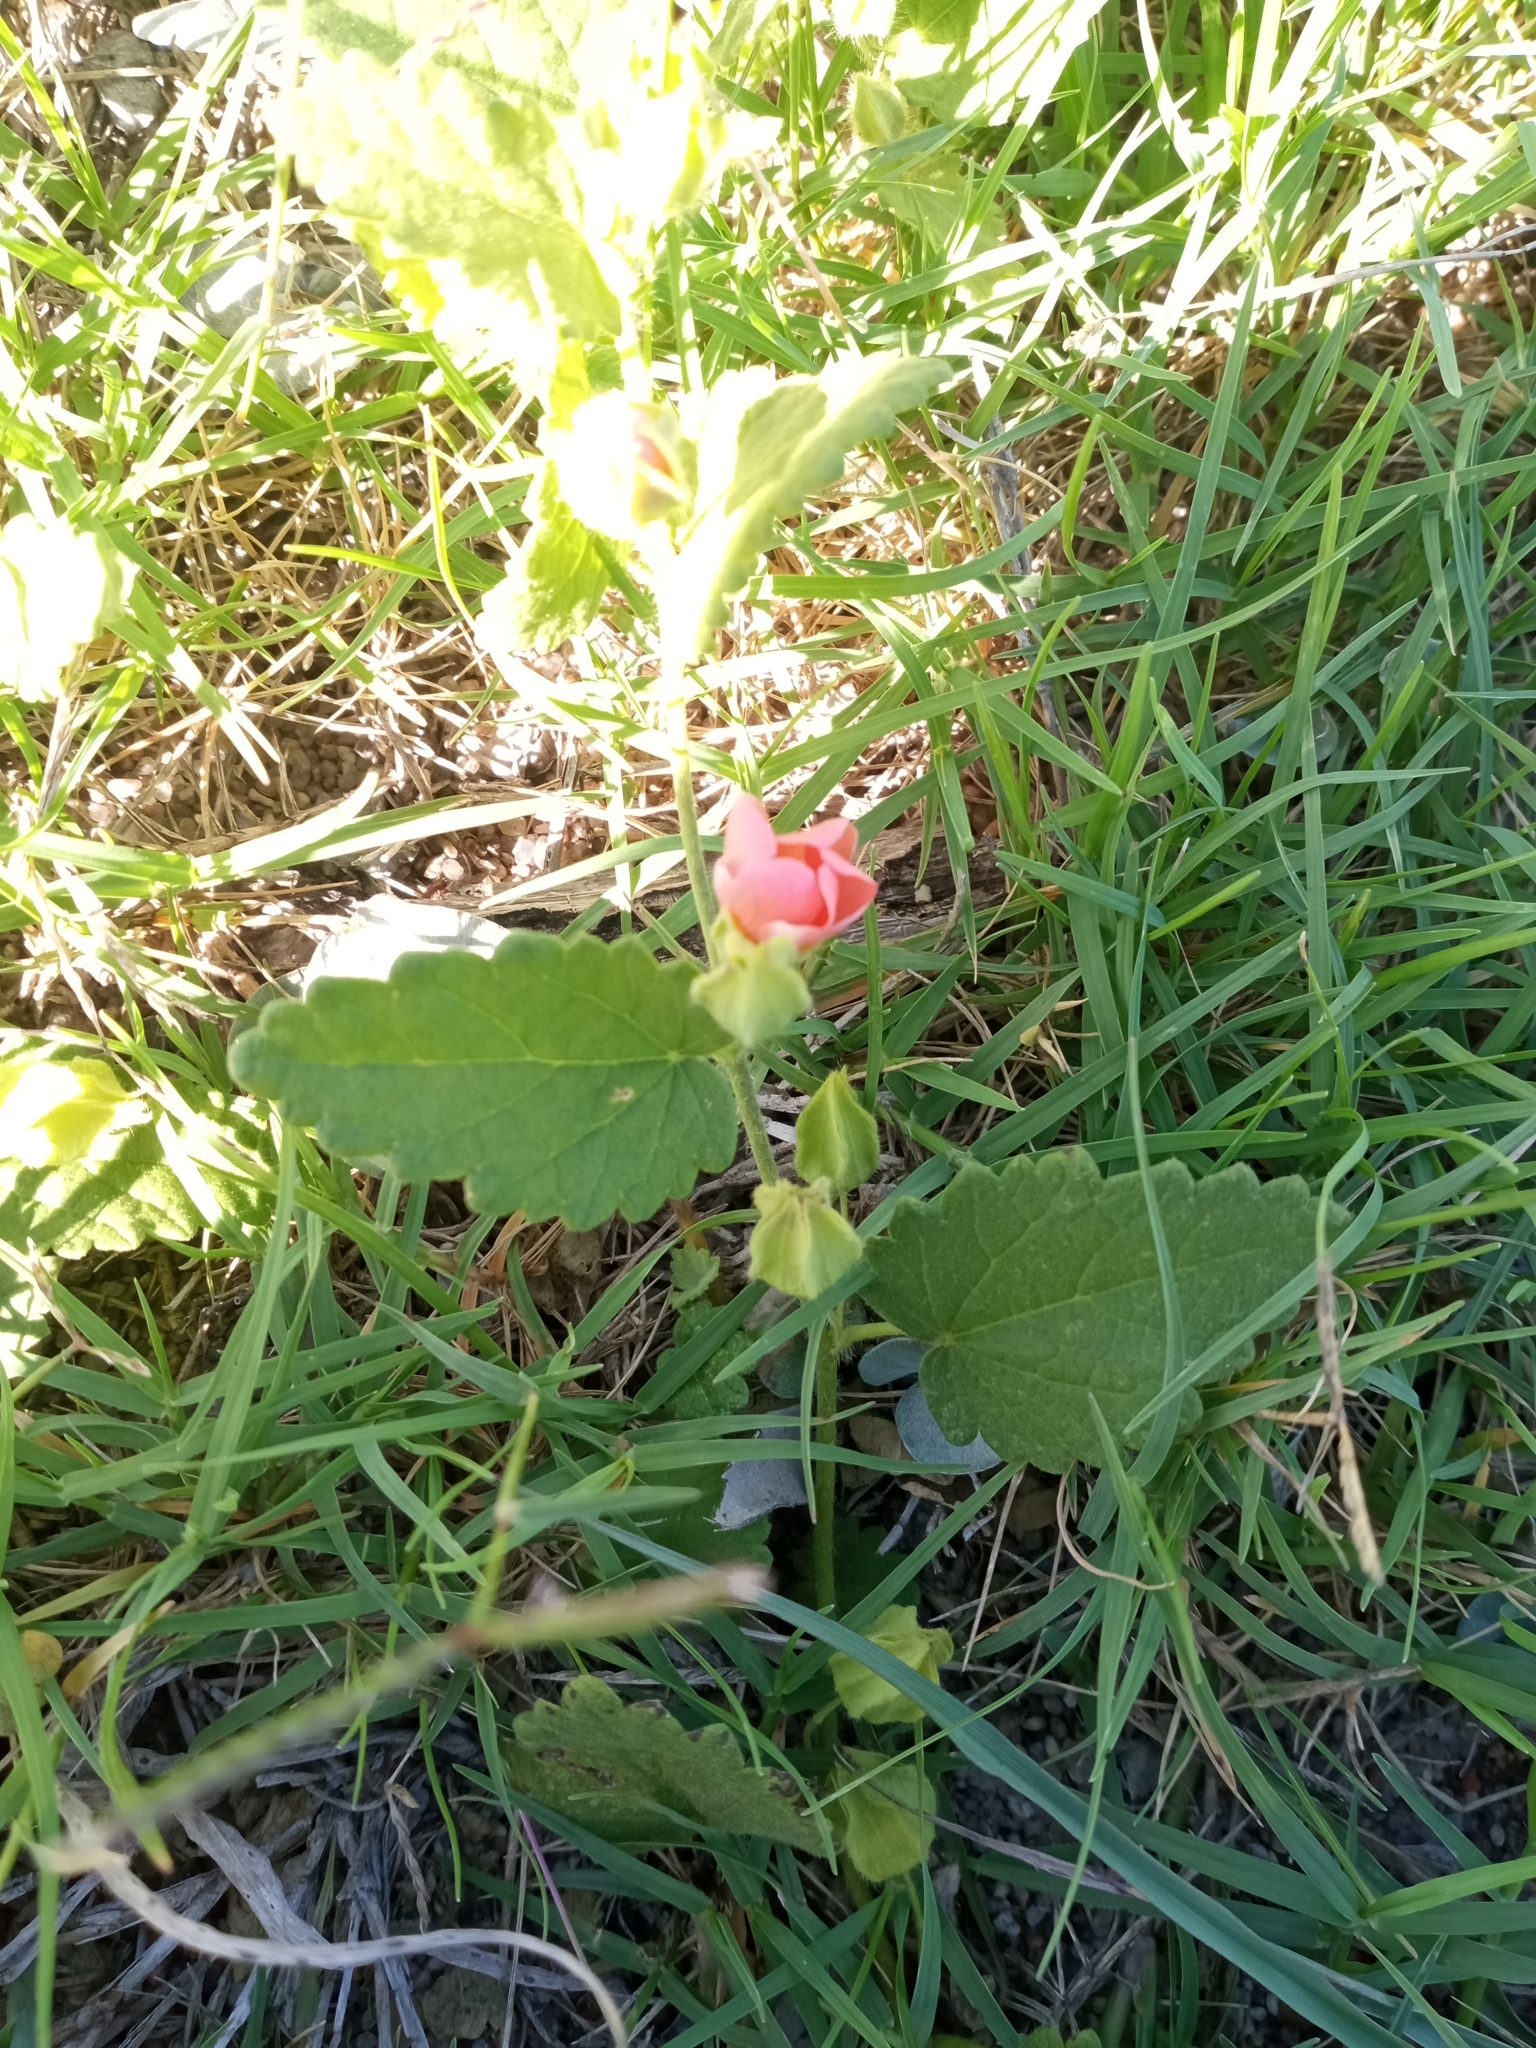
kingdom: Plantae
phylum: Tracheophyta
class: Magnoliopsida
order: Malvales
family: Malvaceae
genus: Krapovickasia
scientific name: Krapovickasia flavescens
